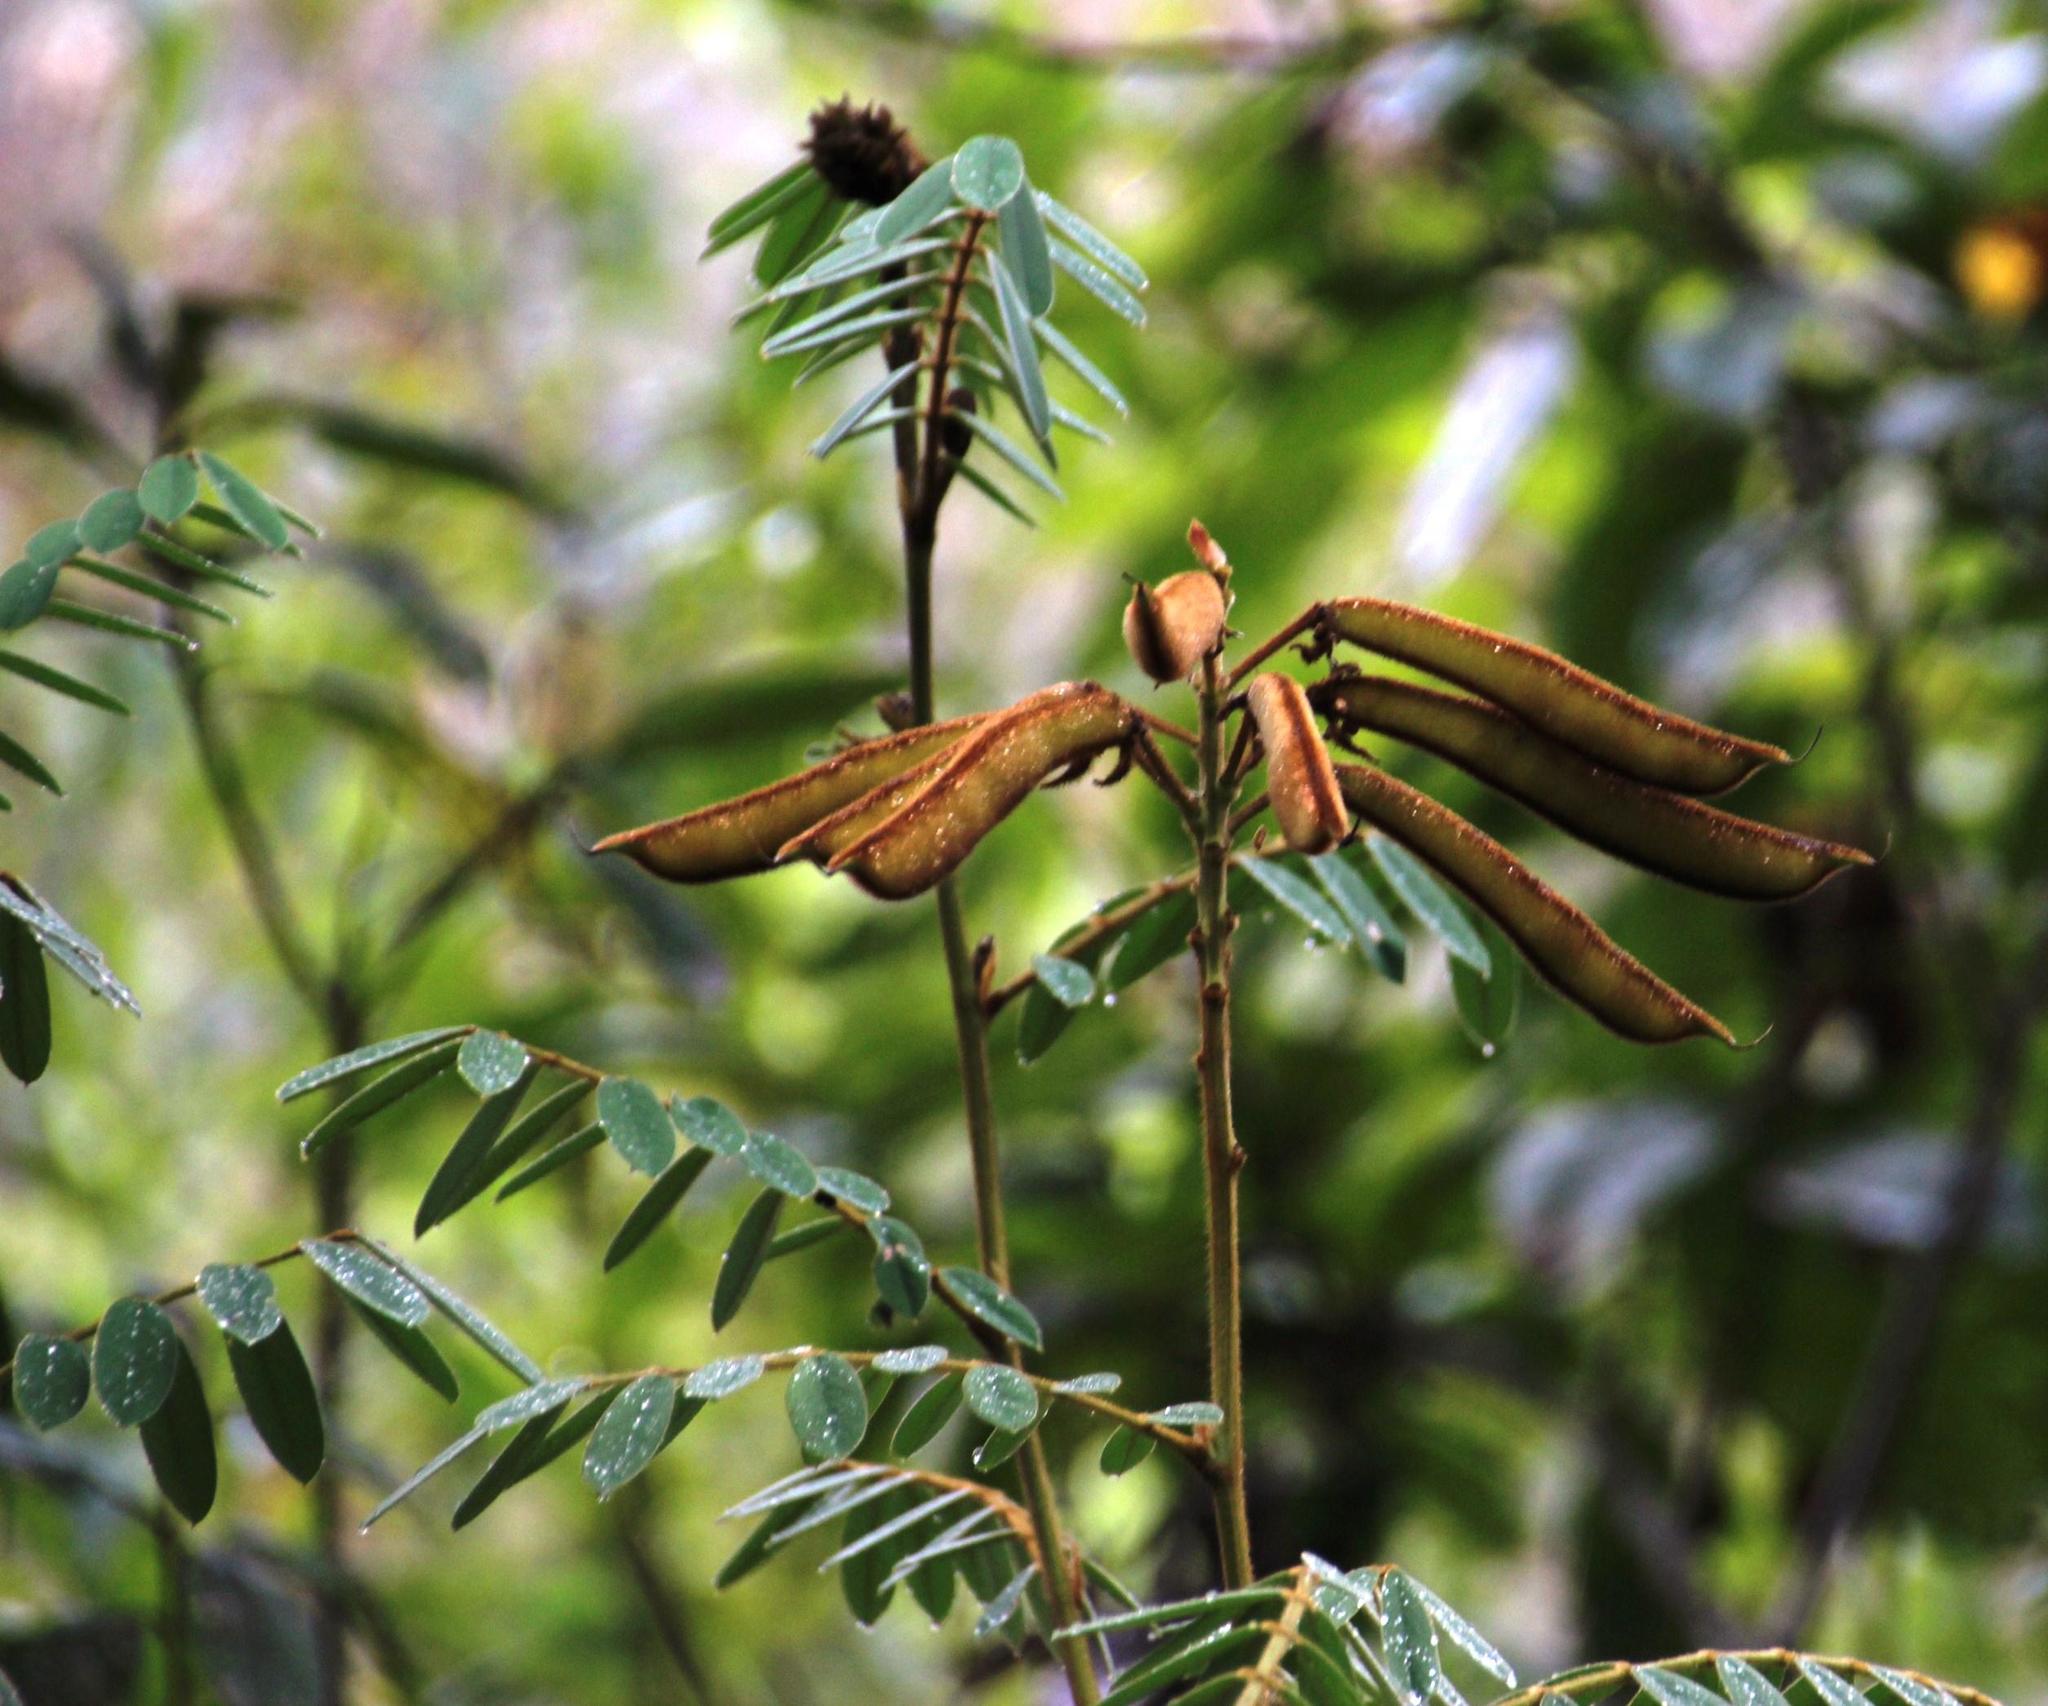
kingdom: Plantae
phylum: Tracheophyta
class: Magnoliopsida
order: Fabales
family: Fabaceae
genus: Apurimacia
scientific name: Apurimacia boliviana
